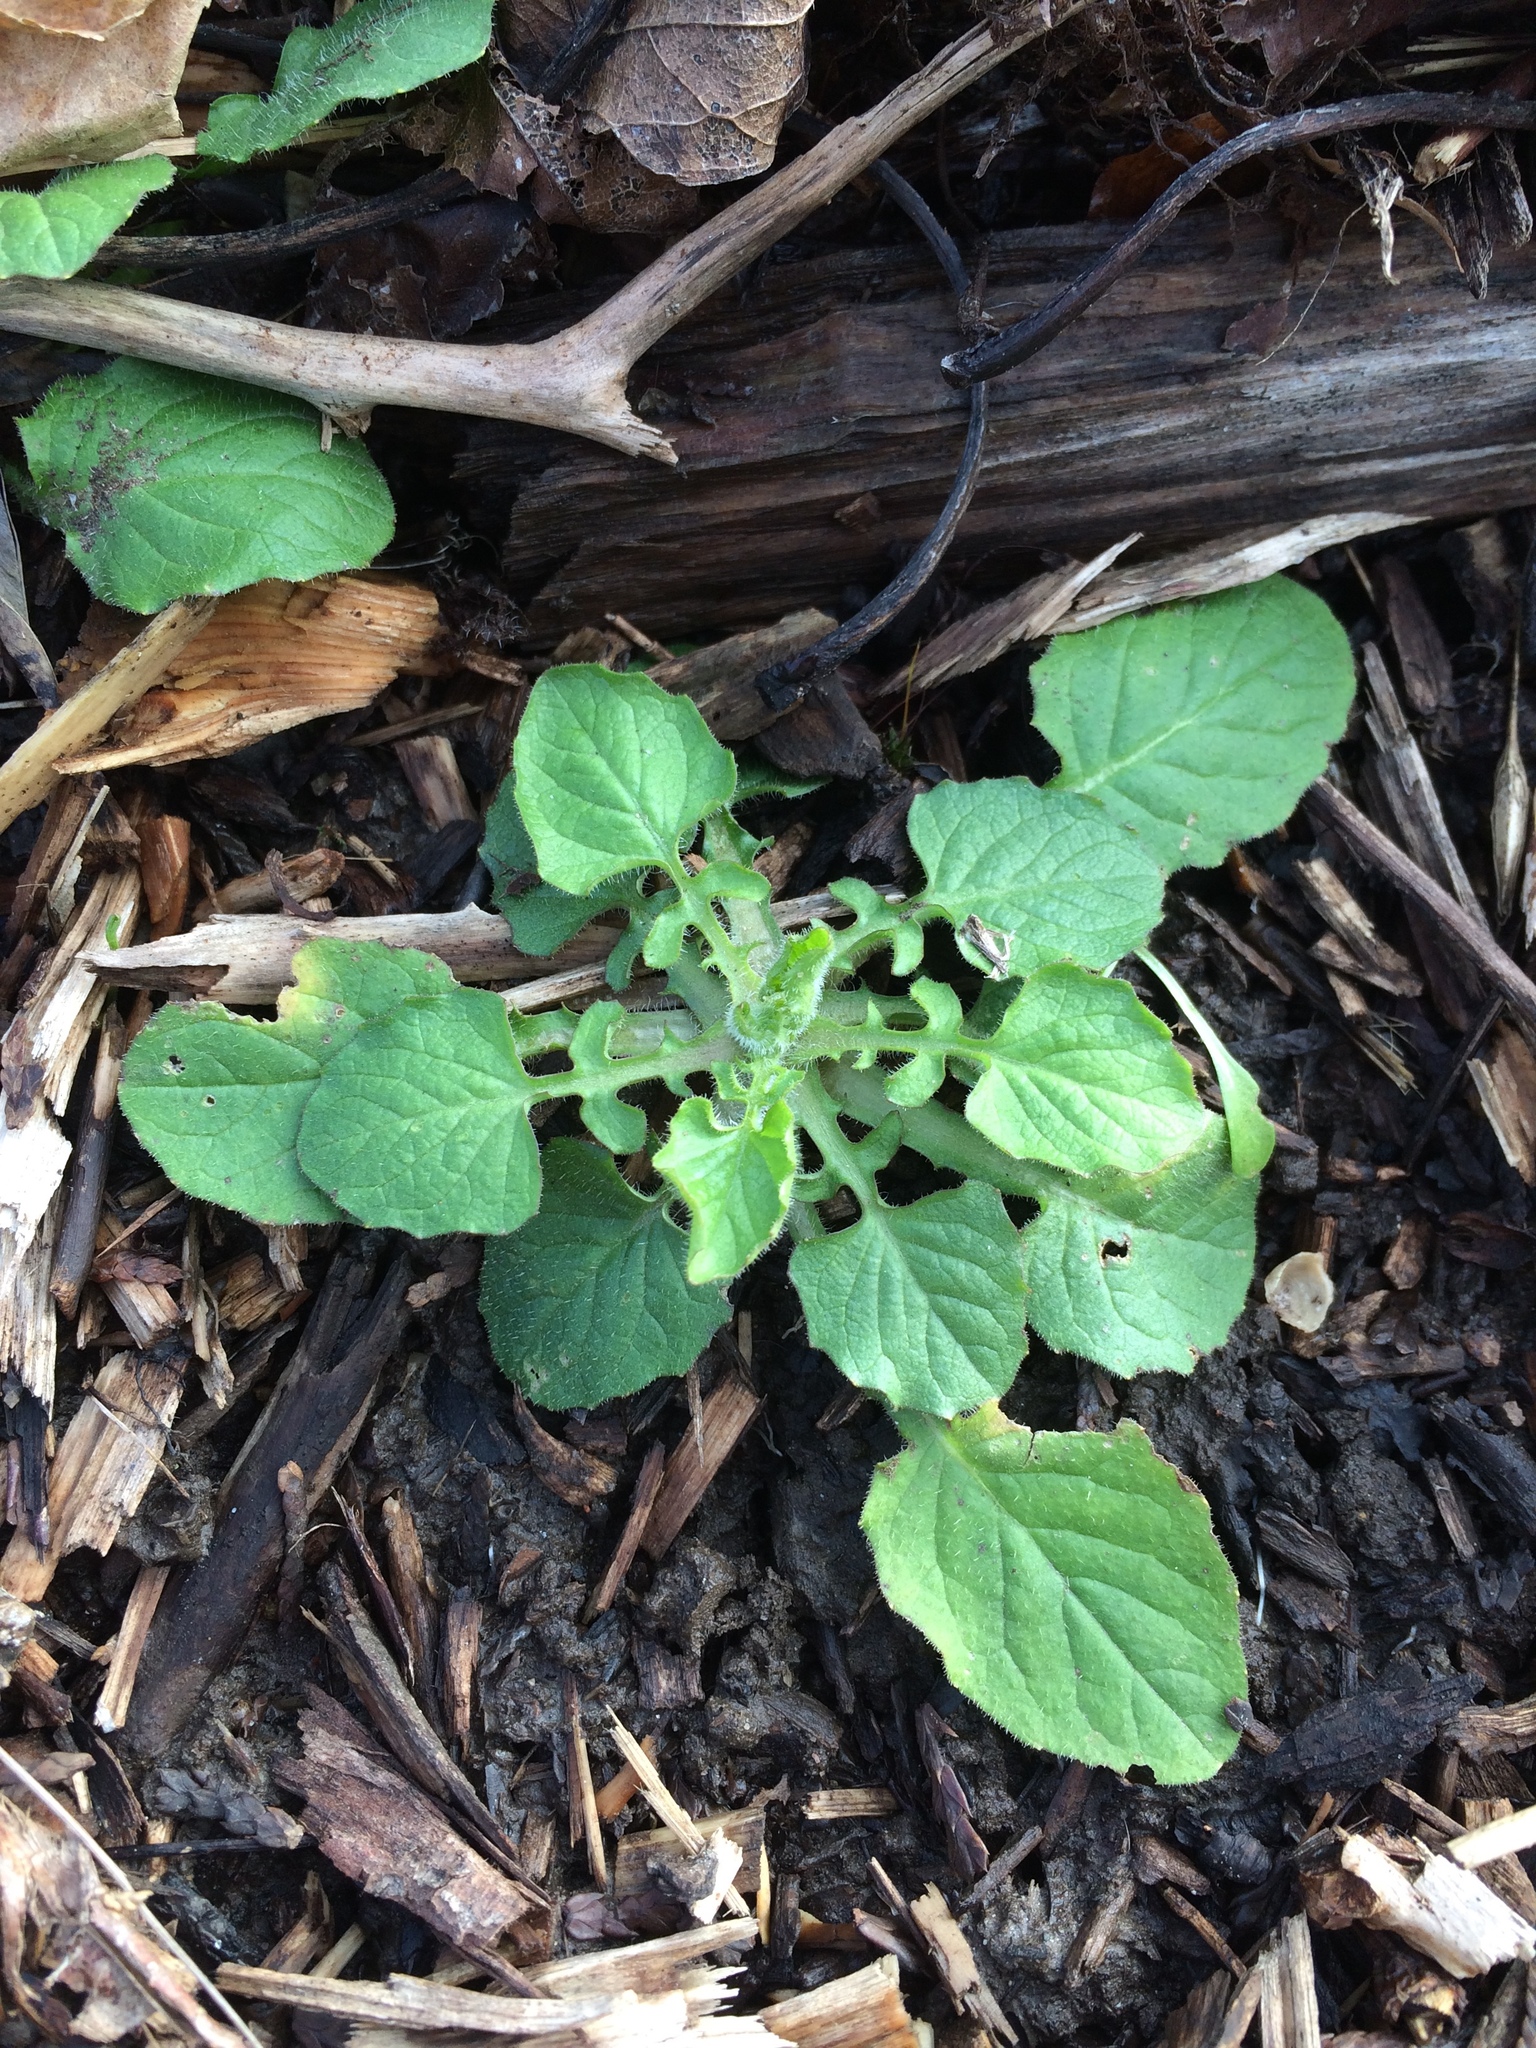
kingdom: Plantae
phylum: Tracheophyta
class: Magnoliopsida
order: Asterales
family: Asteraceae
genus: Lapsana
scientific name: Lapsana communis
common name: Nipplewort
